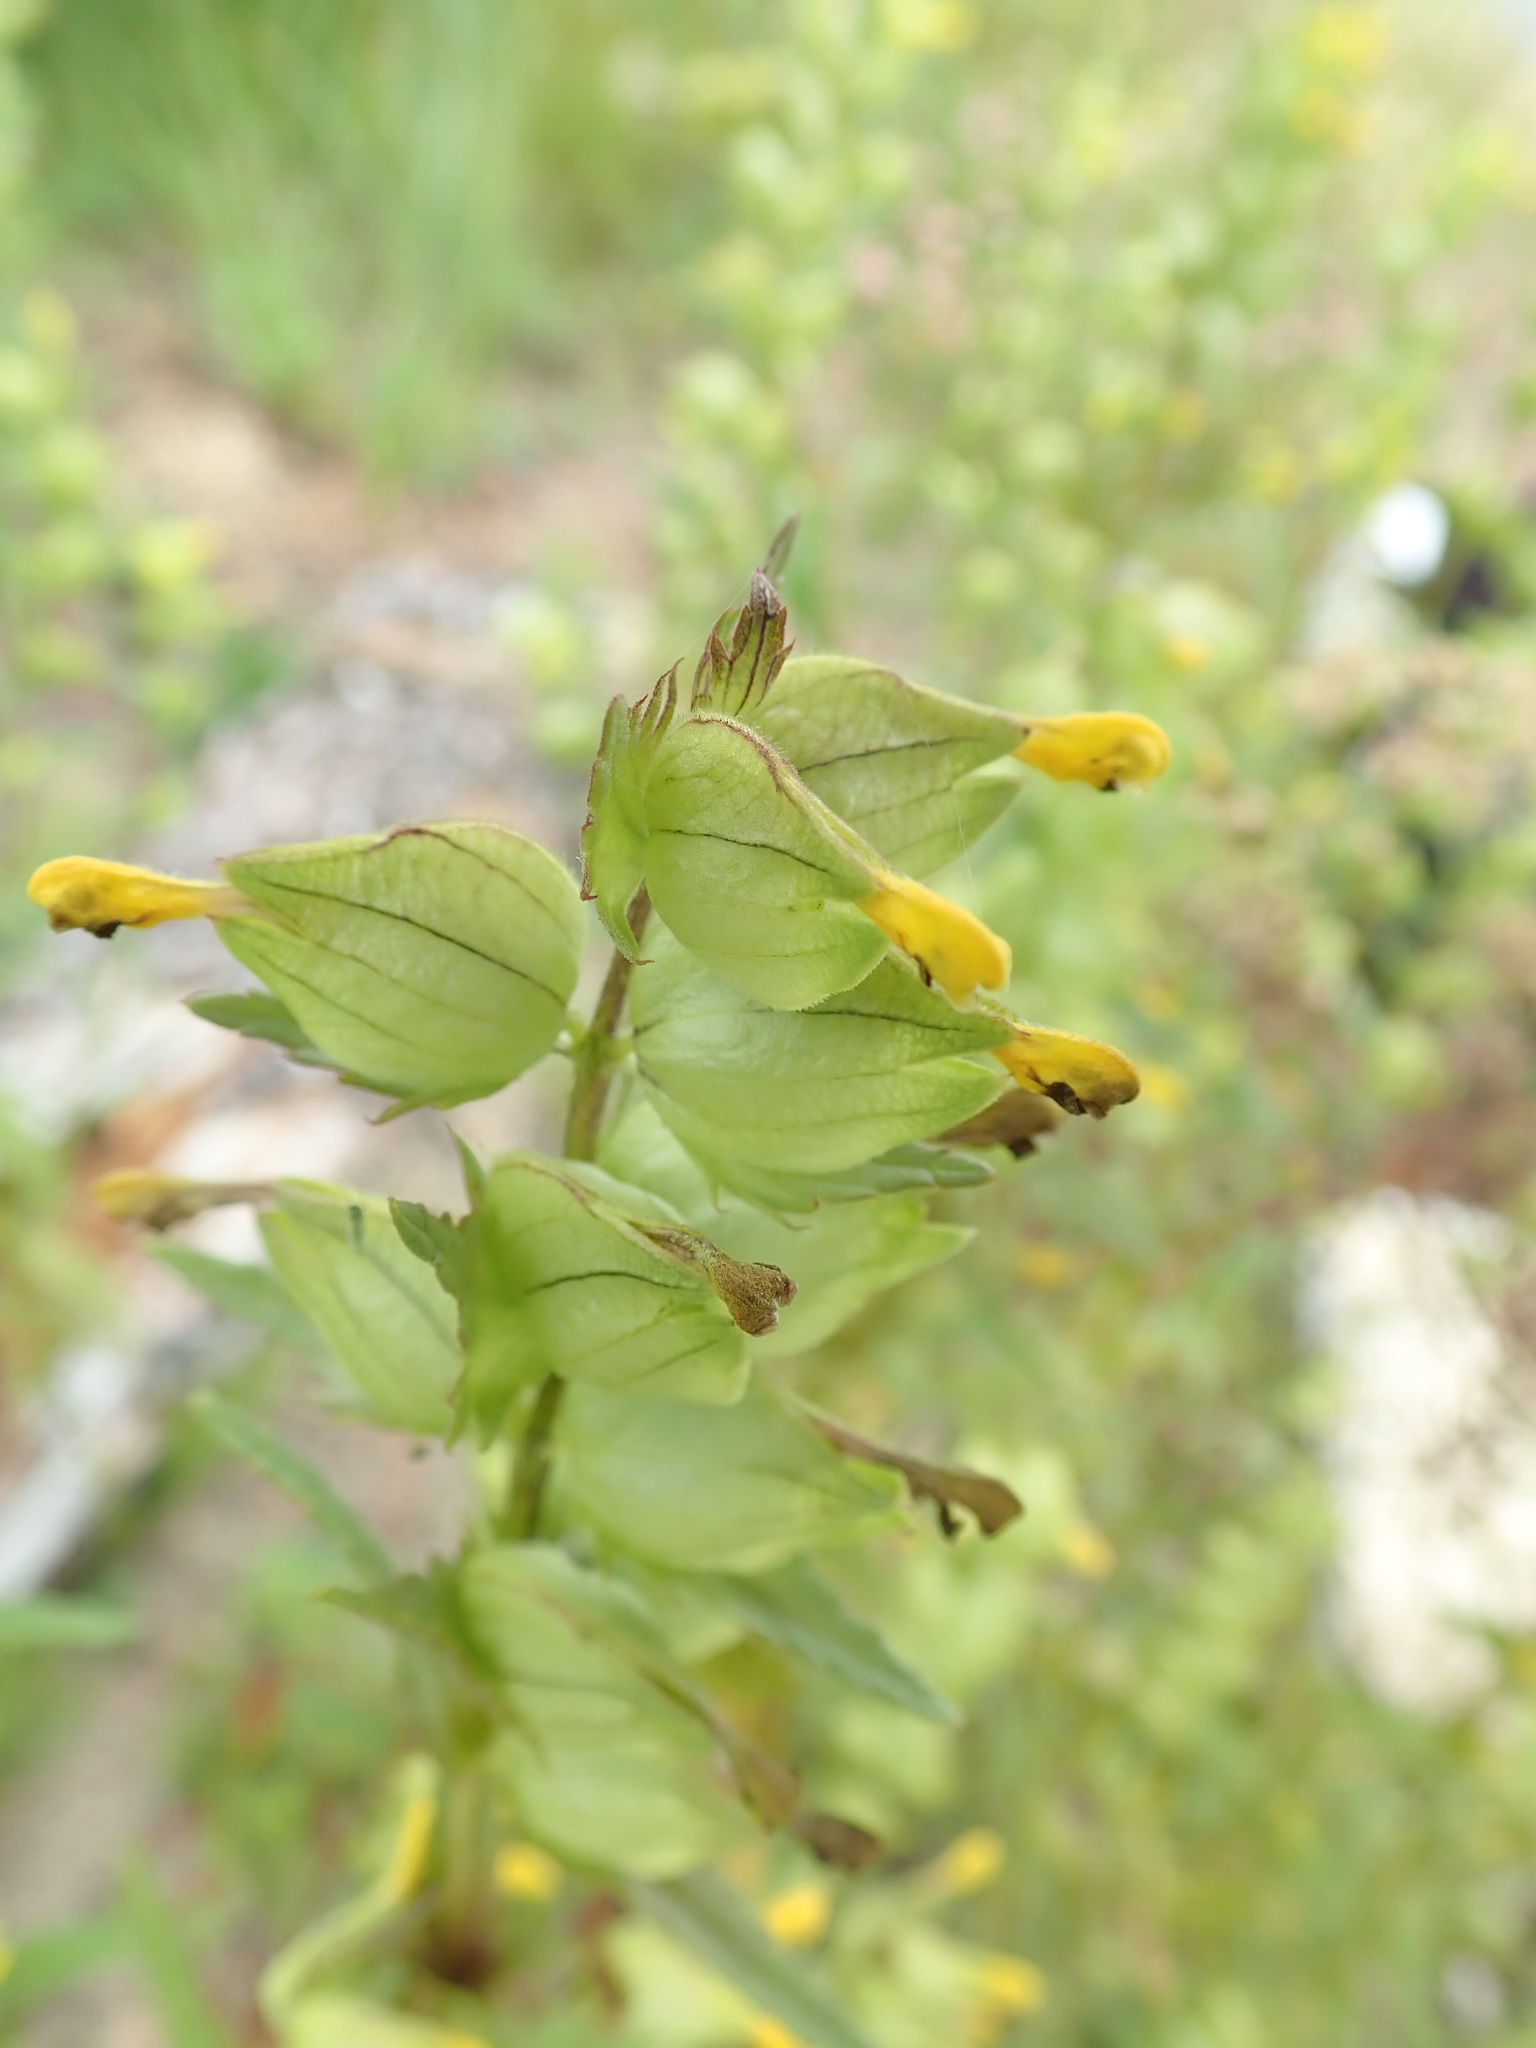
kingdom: Plantae
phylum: Tracheophyta
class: Magnoliopsida
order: Lamiales
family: Orobanchaceae
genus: Rhinanthus
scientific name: Rhinanthus groenlandicus
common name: Little yellow rattle
